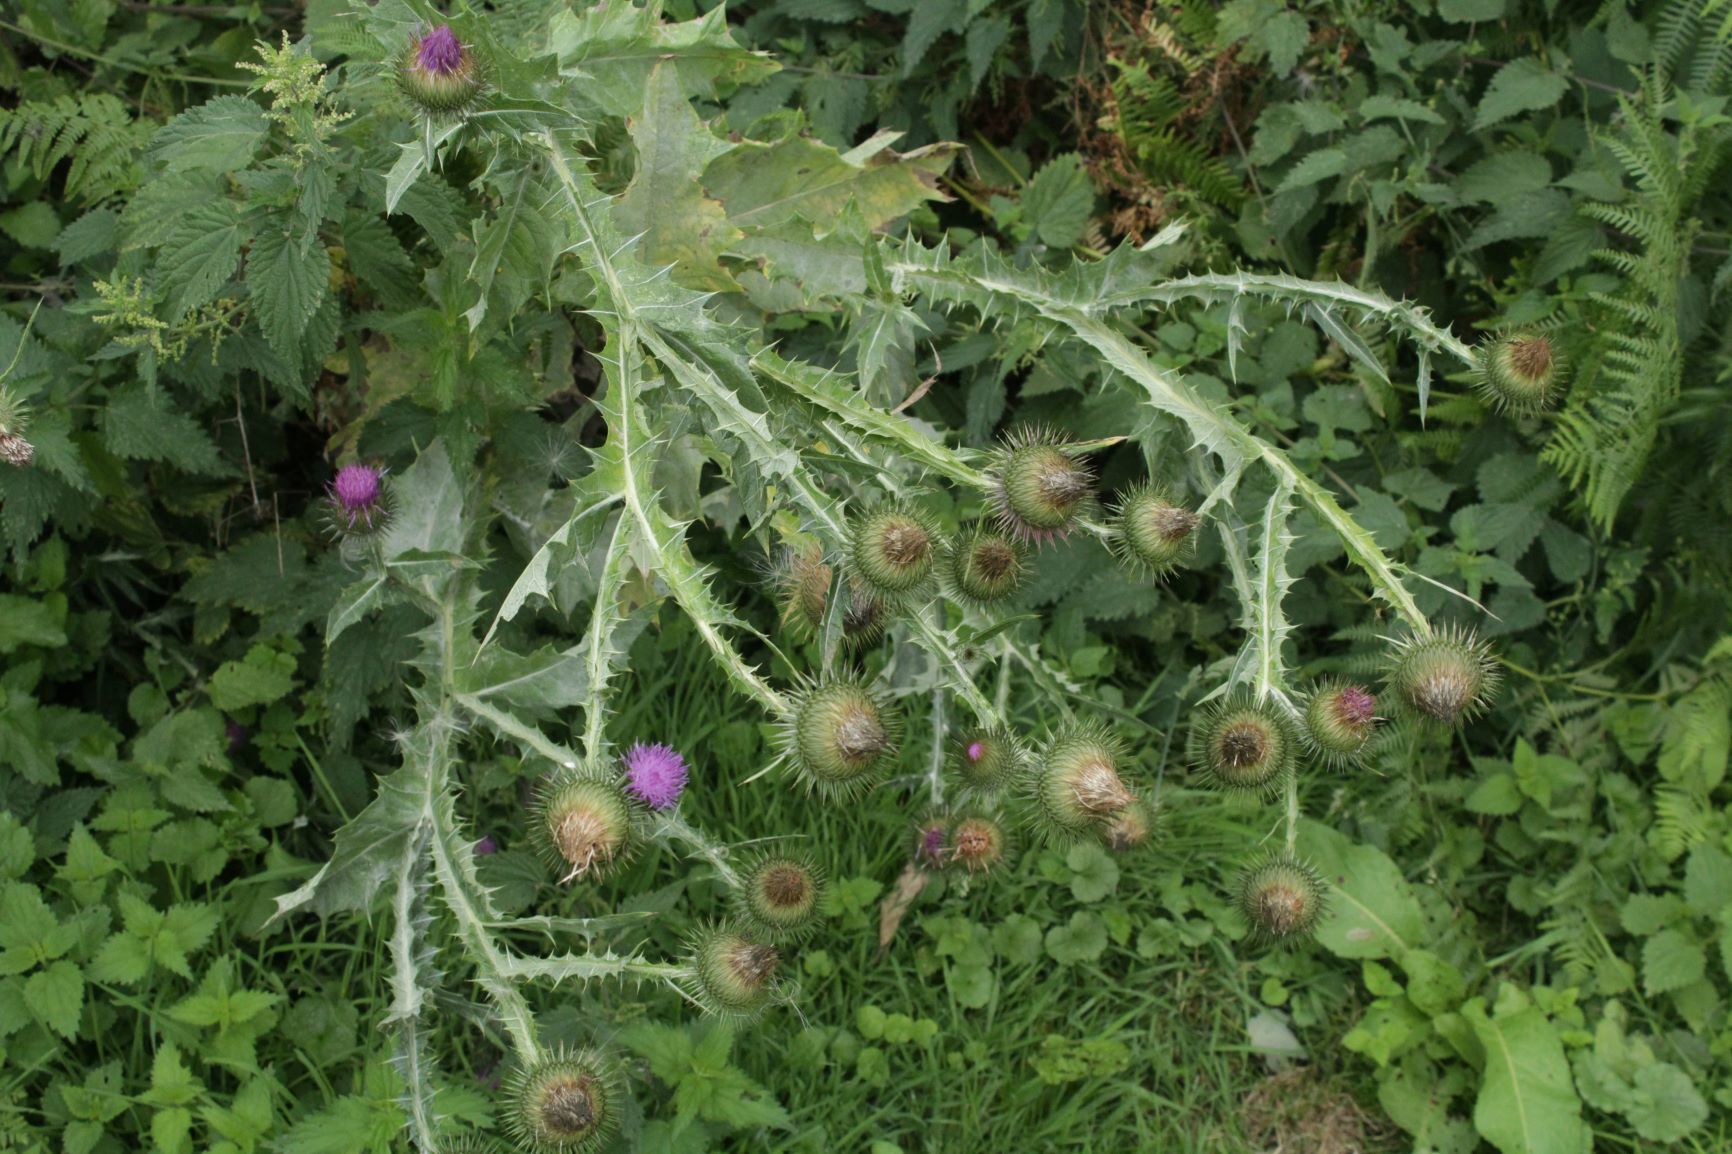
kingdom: Plantae
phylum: Tracheophyta
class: Magnoliopsida
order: Asterales
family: Asteraceae
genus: Onopordum
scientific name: Onopordum acanthium
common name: Scotch thistle
